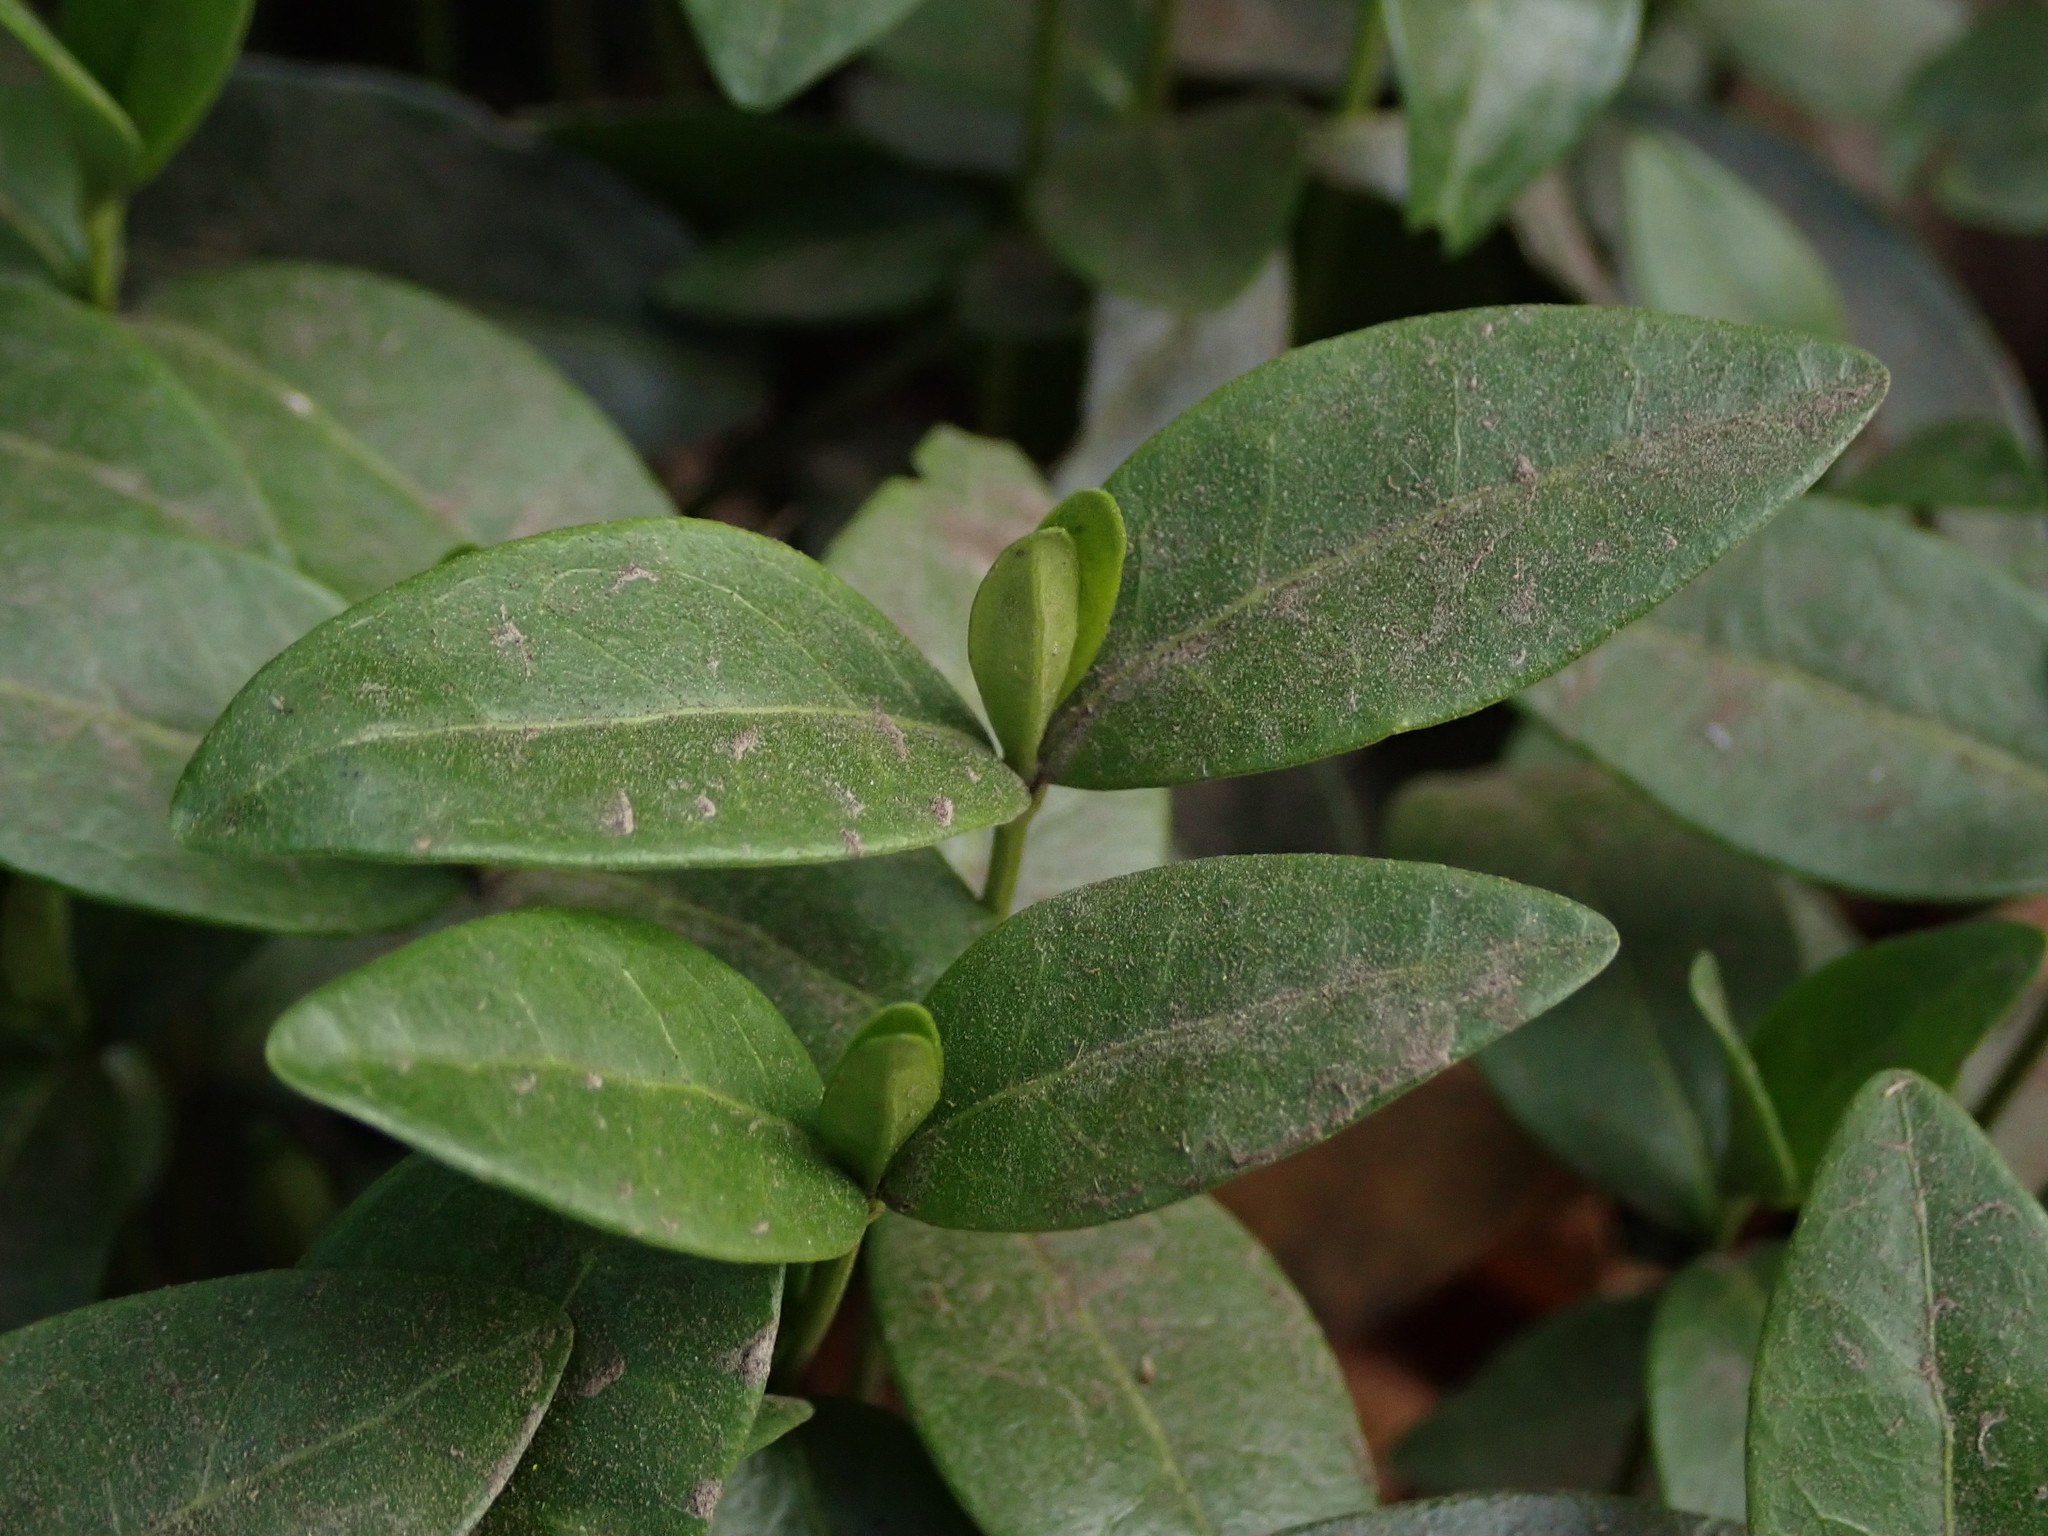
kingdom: Plantae
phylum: Tracheophyta
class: Magnoliopsida
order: Gentianales
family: Apocynaceae
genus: Vinca
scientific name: Vinca minor
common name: Lesser periwinkle
